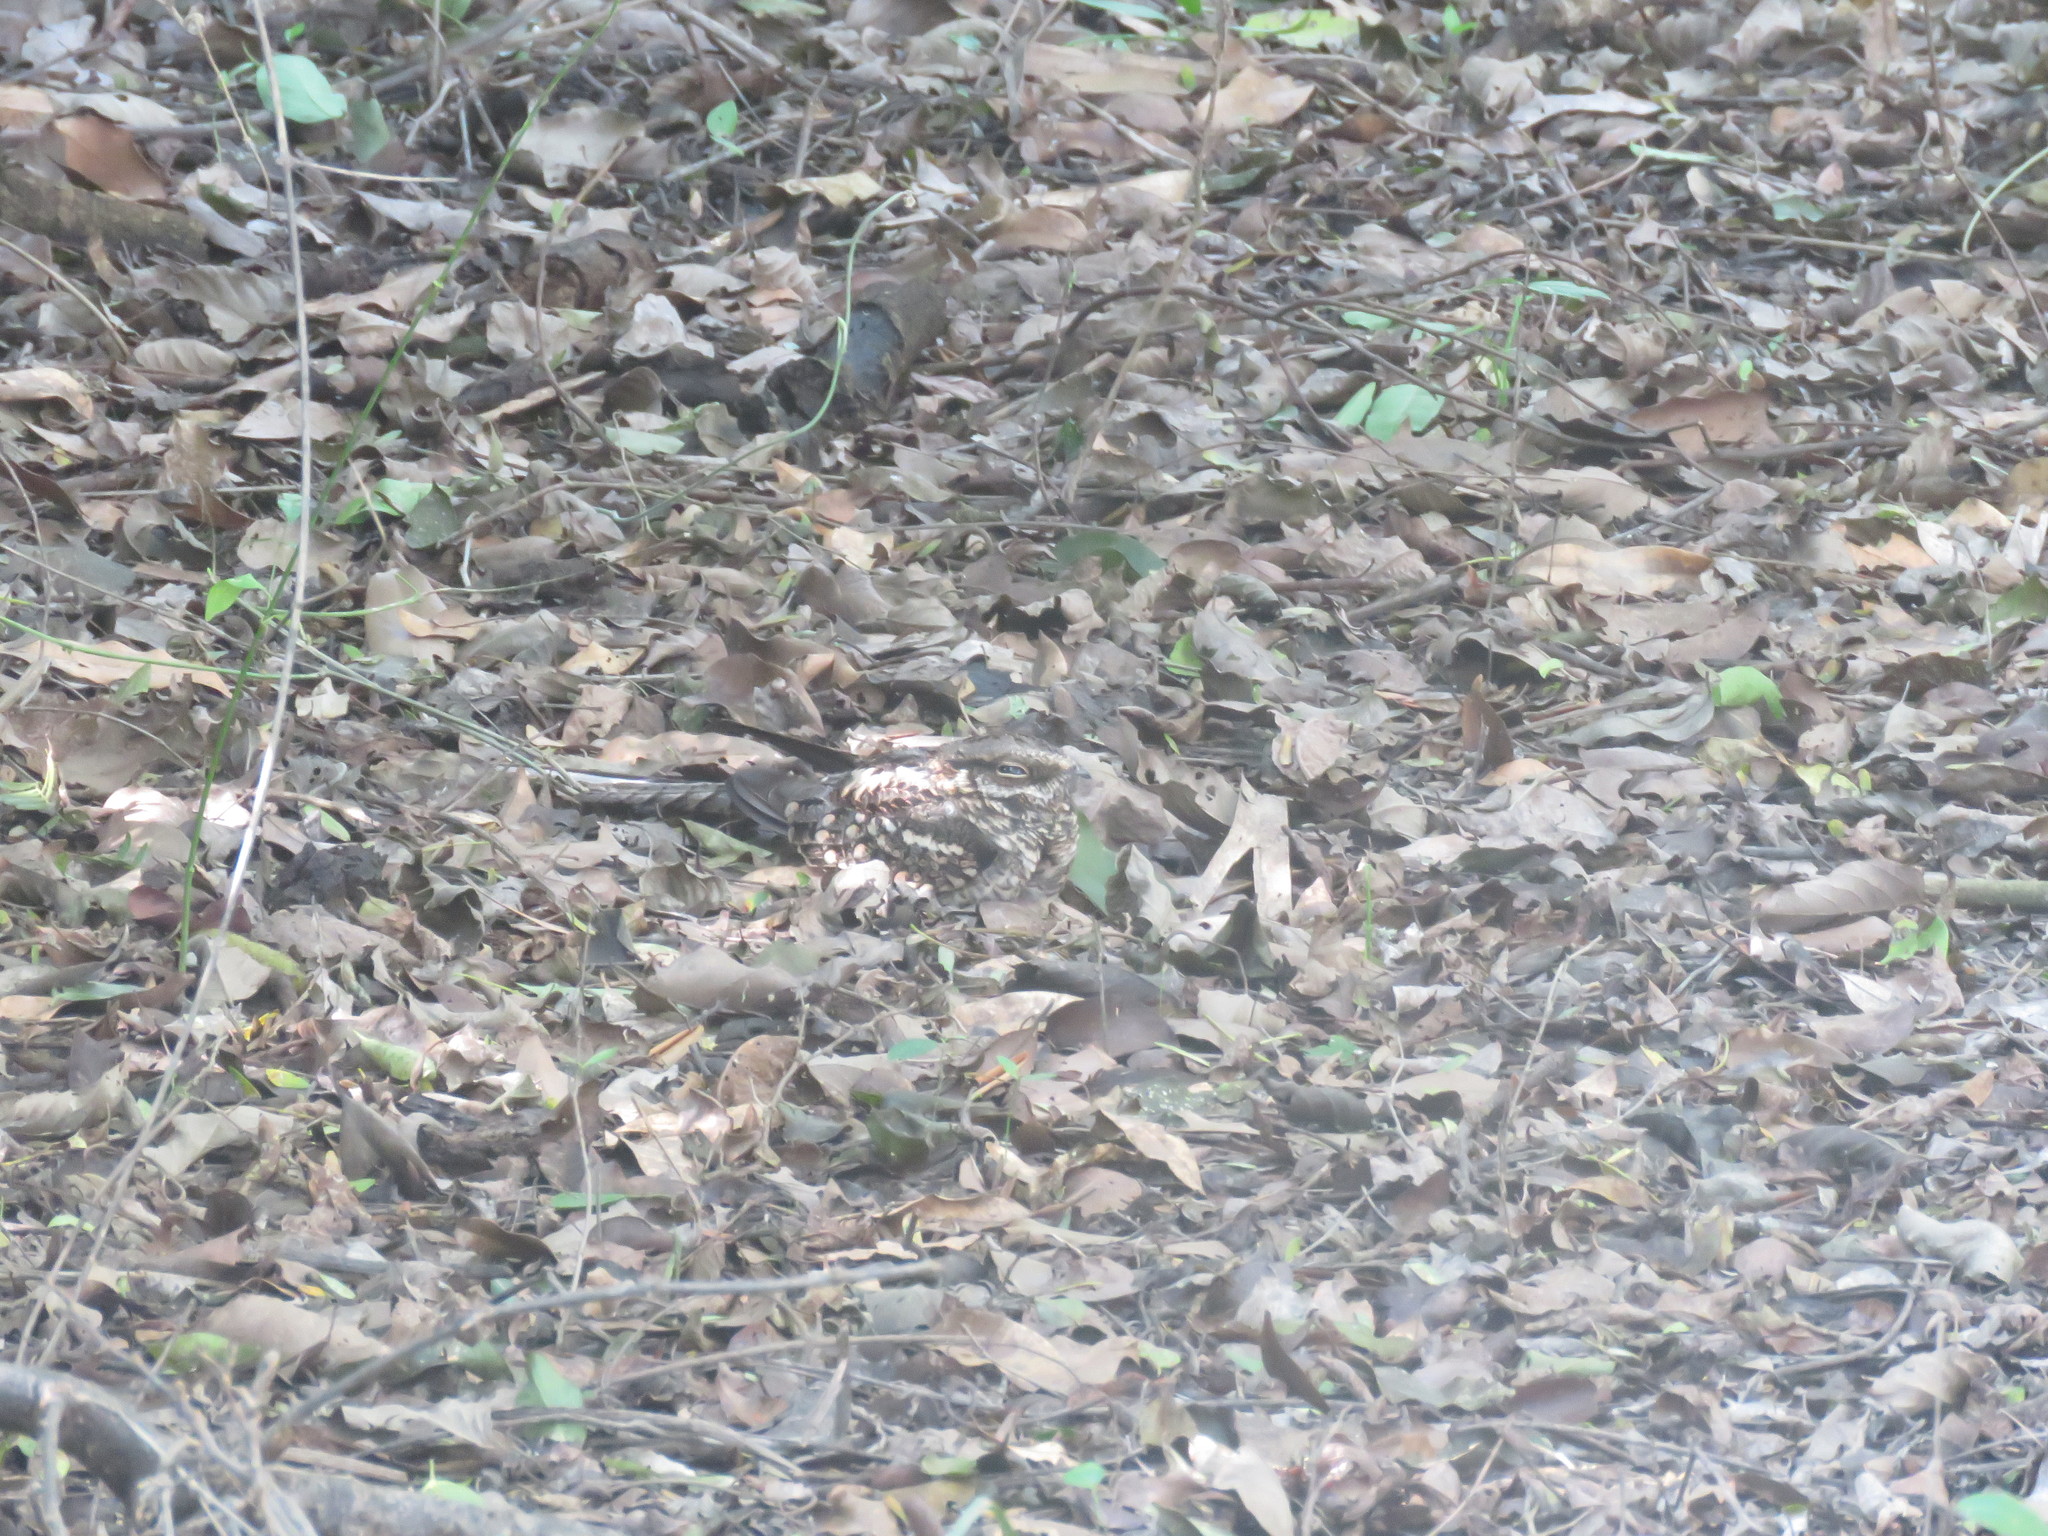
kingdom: Animalia
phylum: Chordata
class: Aves
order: Caprimulgiformes
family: Caprimulgidae
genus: Hydropsalis
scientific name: Hydropsalis torquata
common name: Scissor-tailed nightjar
